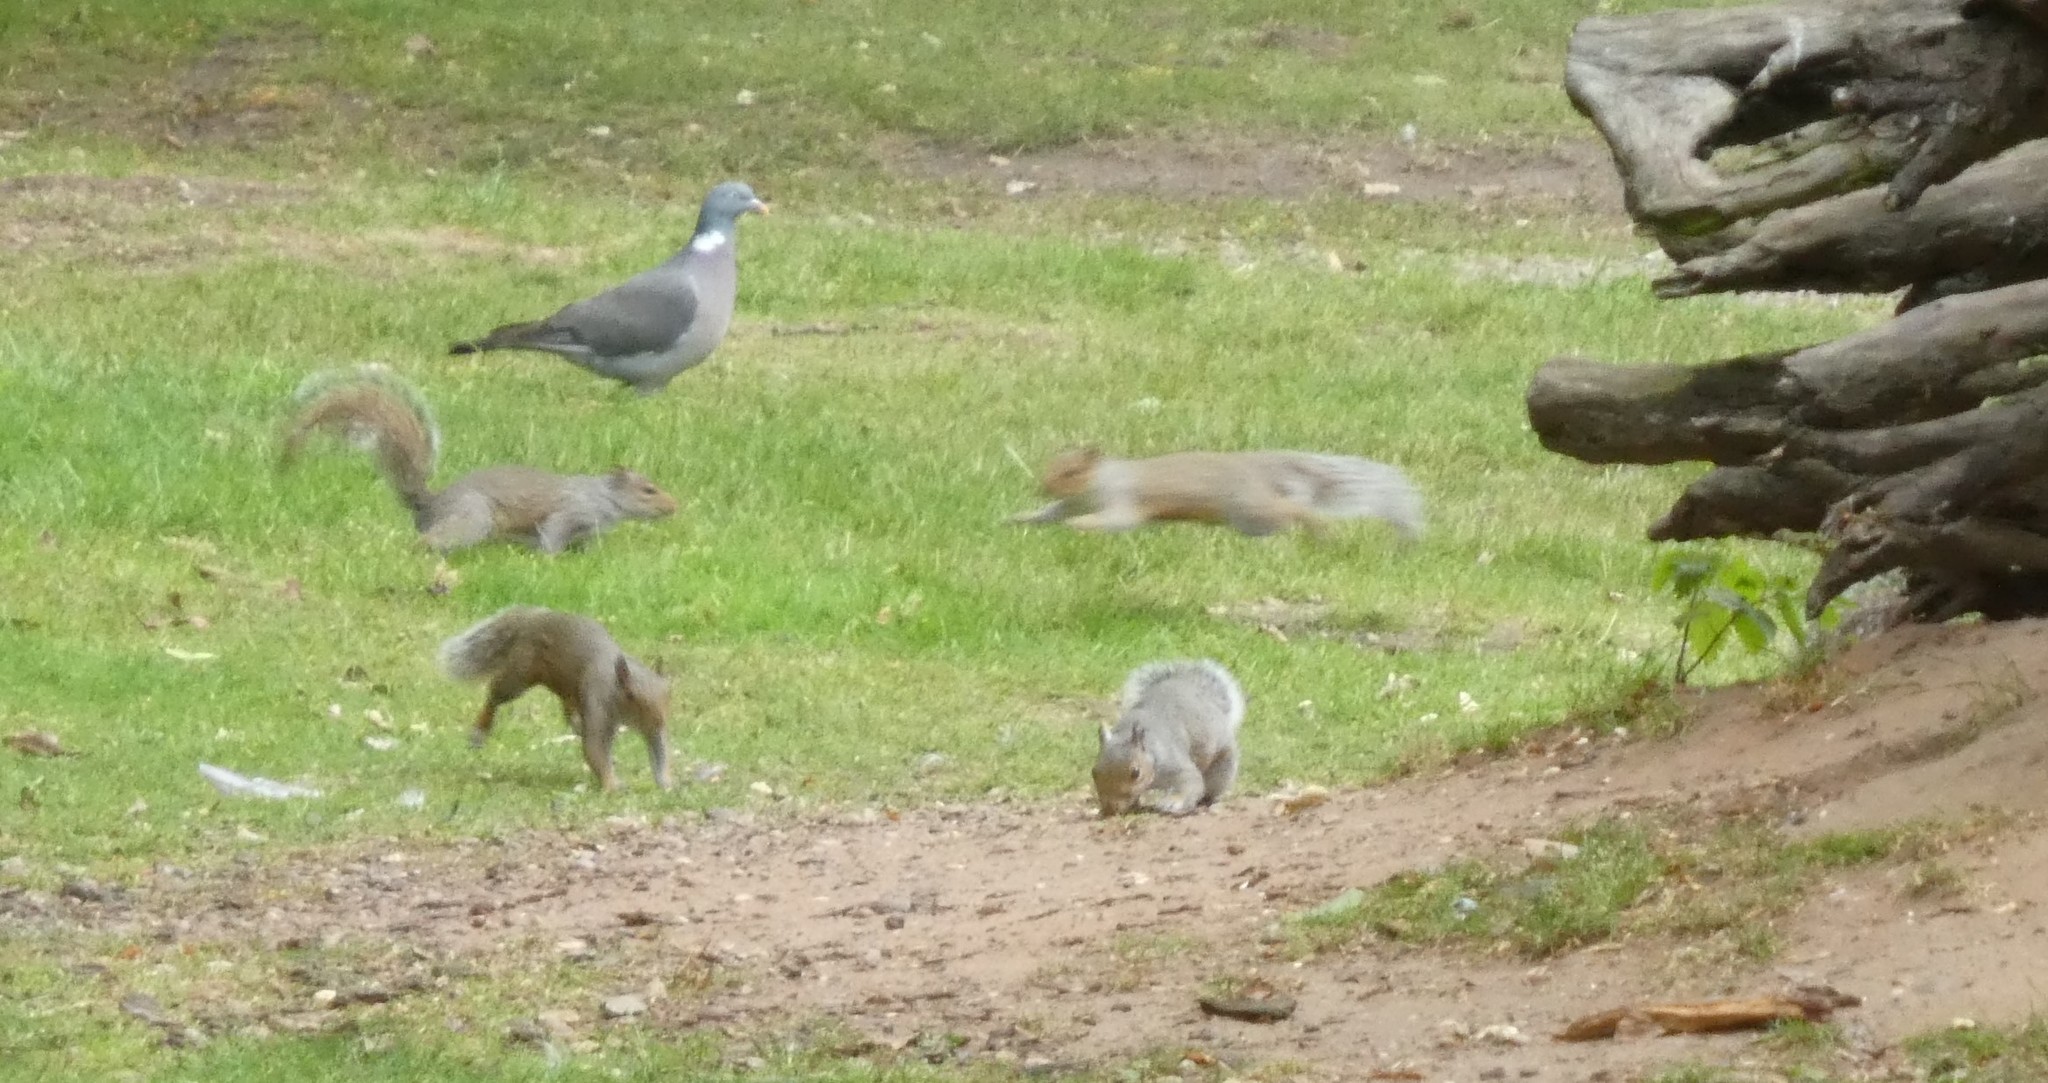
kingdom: Animalia
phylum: Chordata
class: Mammalia
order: Rodentia
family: Sciuridae
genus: Sciurus
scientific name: Sciurus carolinensis
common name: Eastern gray squirrel
